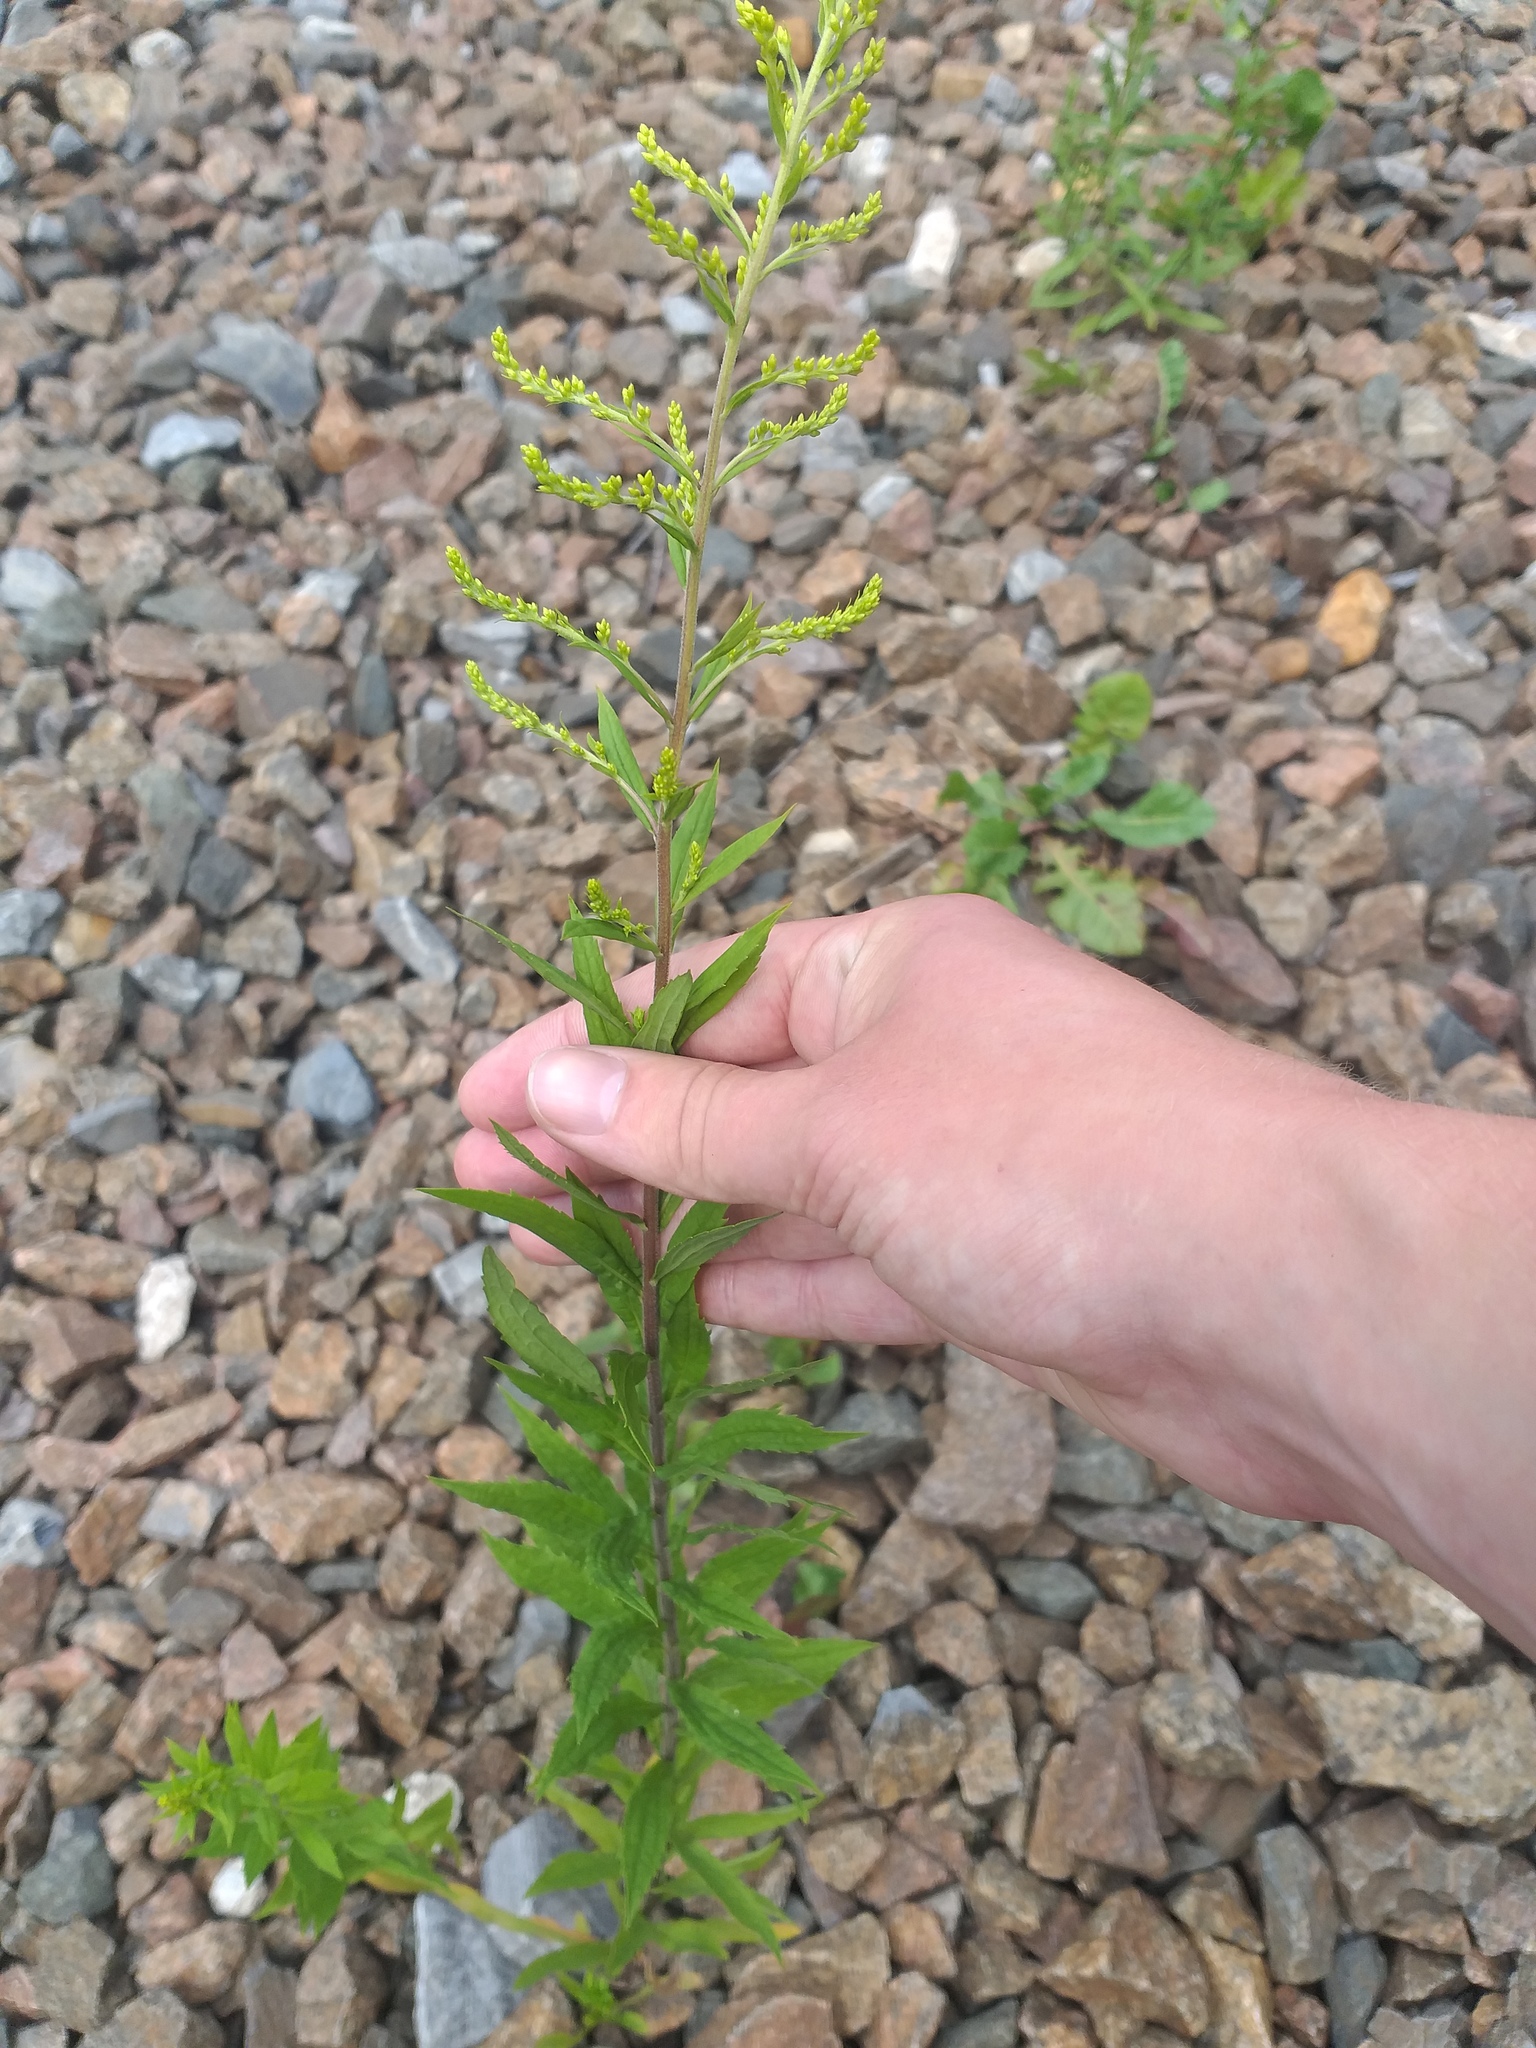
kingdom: Plantae
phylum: Tracheophyta
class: Magnoliopsida
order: Asterales
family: Asteraceae
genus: Solidago
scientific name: Solidago canadensis
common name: Canada goldenrod
